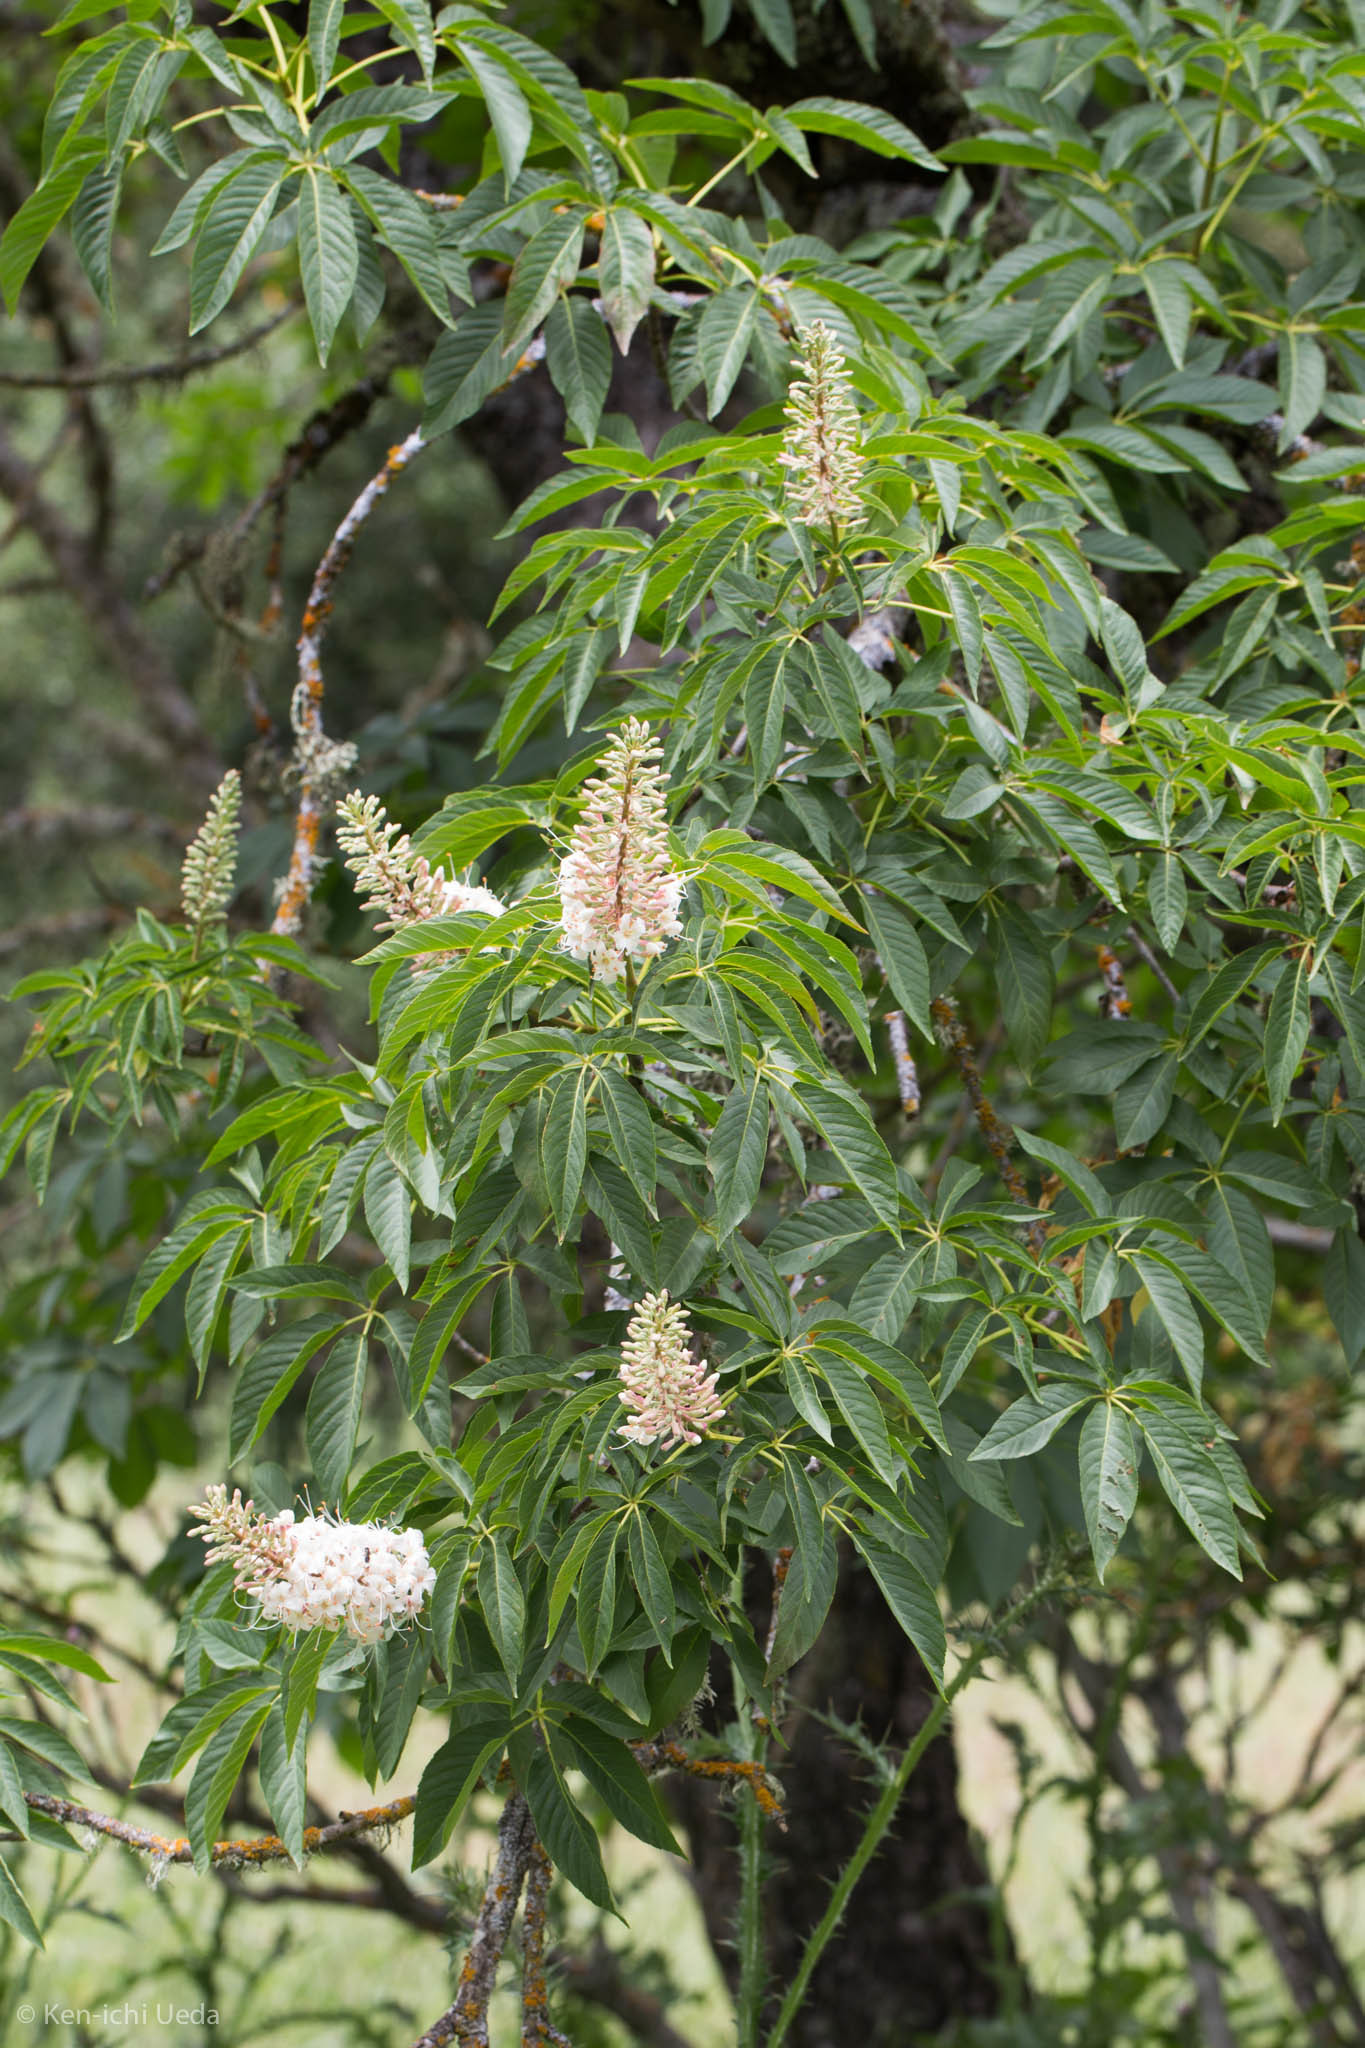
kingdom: Plantae
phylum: Tracheophyta
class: Magnoliopsida
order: Sapindales
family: Sapindaceae
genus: Aesculus
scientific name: Aesculus californica
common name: California buckeye
